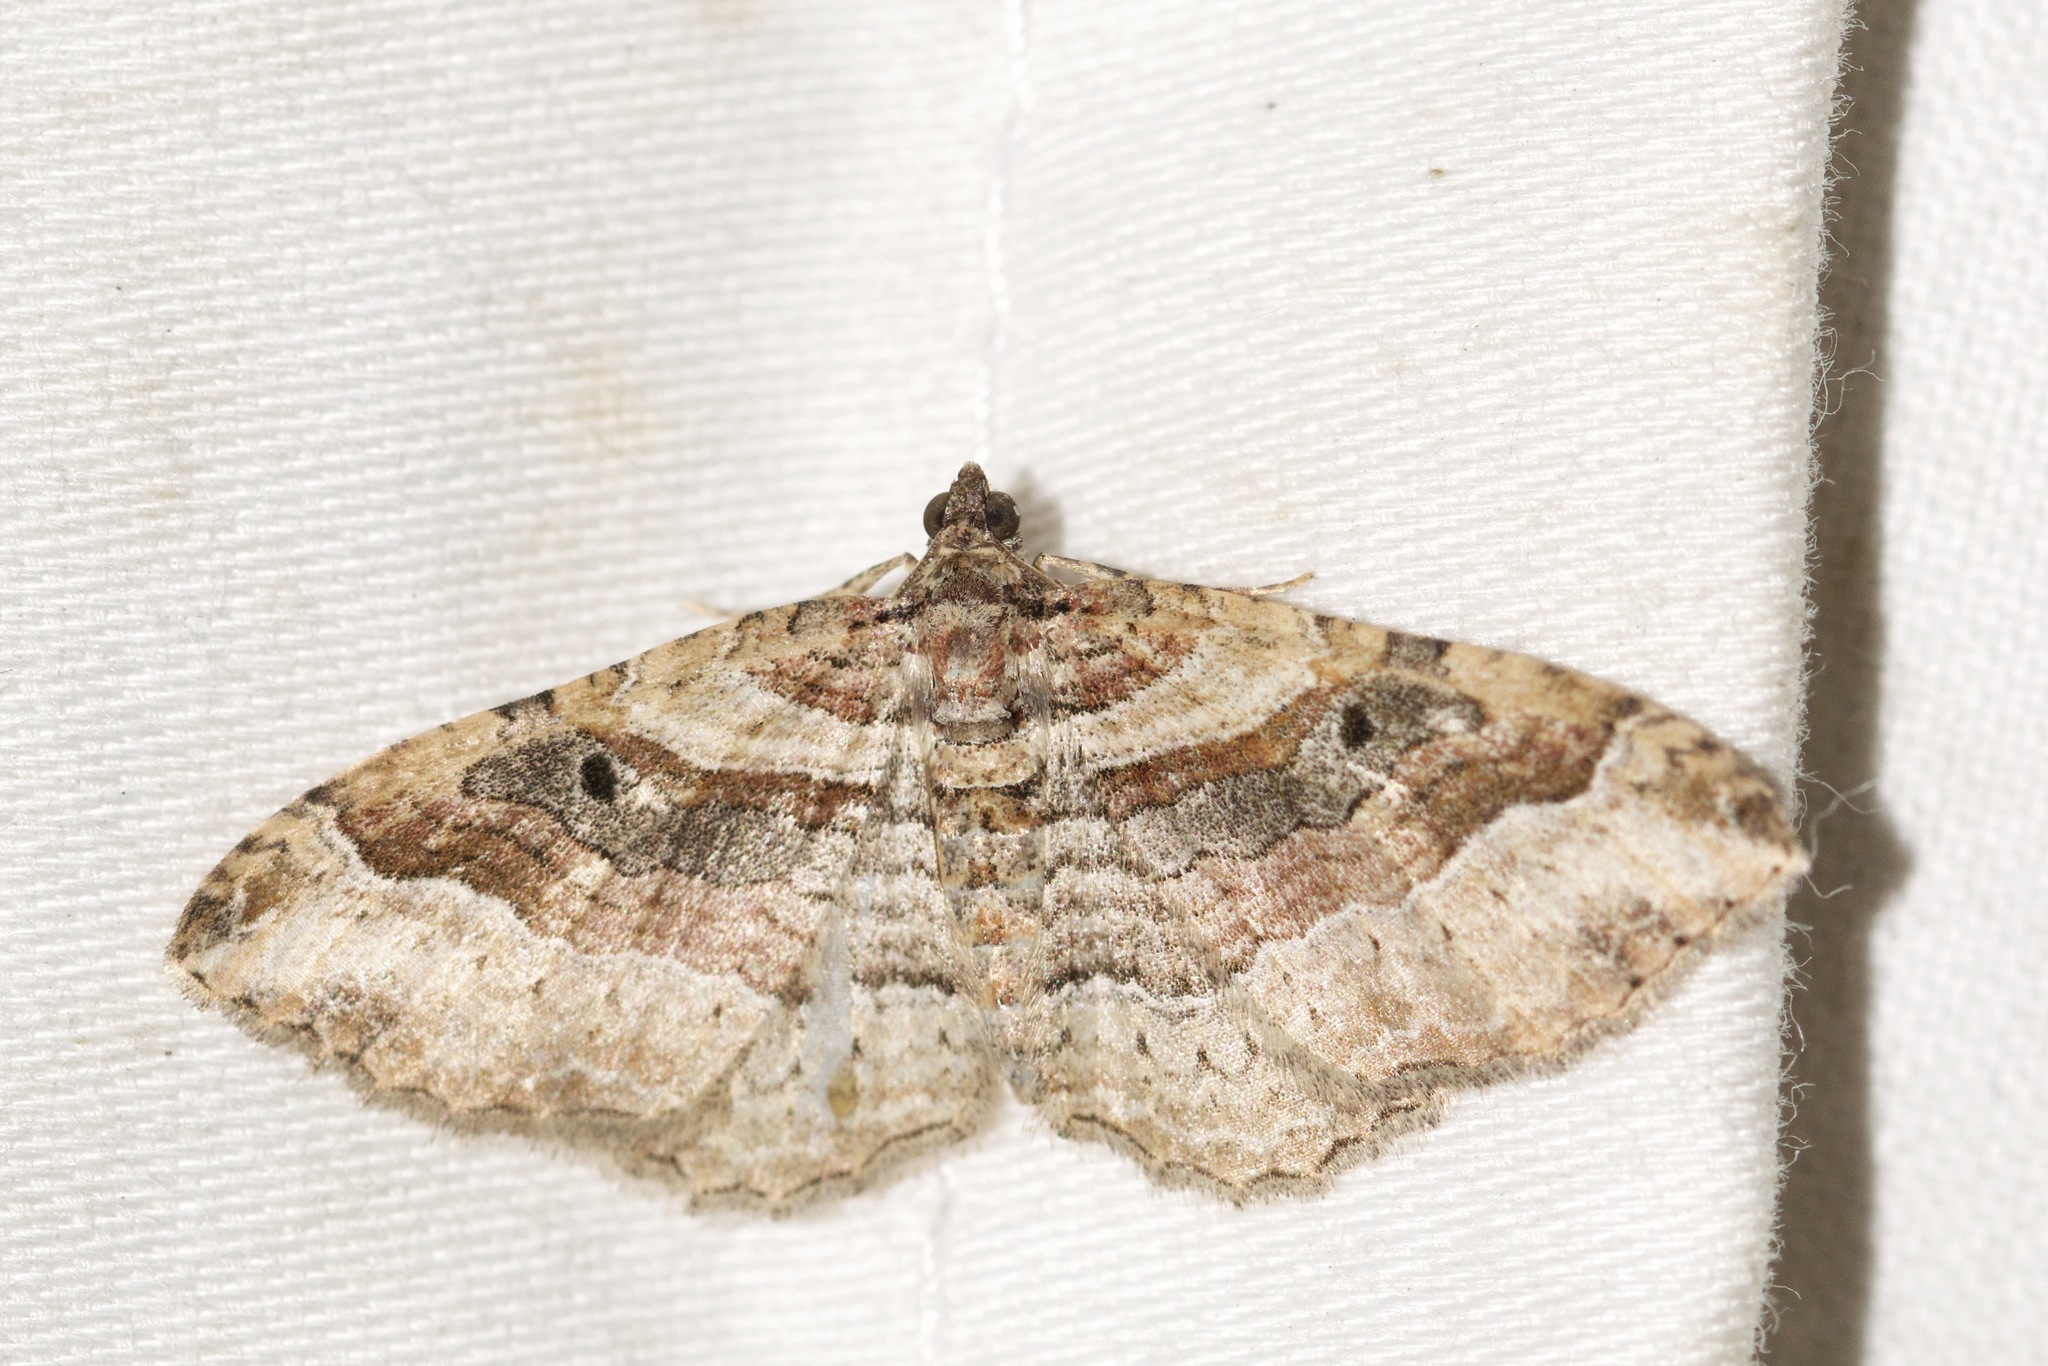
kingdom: Animalia
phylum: Arthropoda
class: Insecta
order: Lepidoptera
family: Geometridae
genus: Costaconvexa
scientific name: Costaconvexa centrostrigaria
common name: Bent-line carpet
